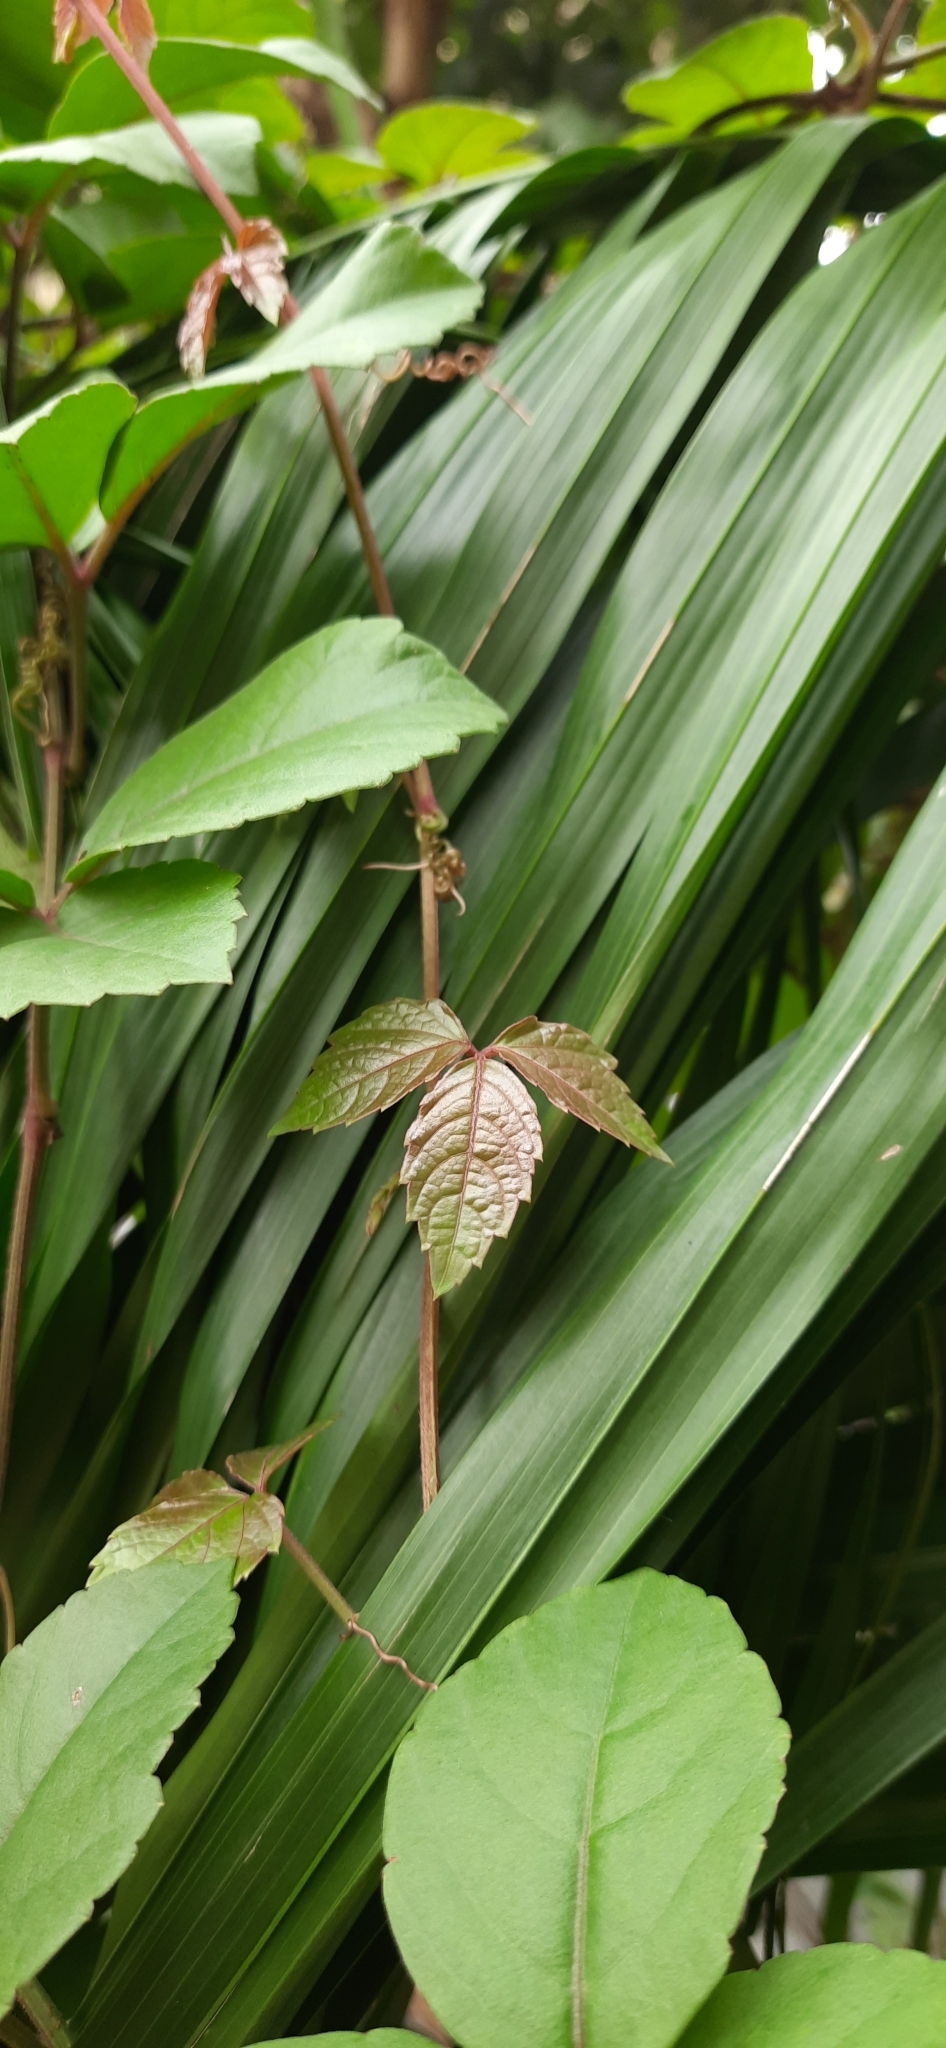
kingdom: Plantae
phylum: Tracheophyta
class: Magnoliopsida
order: Vitales
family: Vitaceae
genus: Causonis
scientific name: Causonis trifolia
